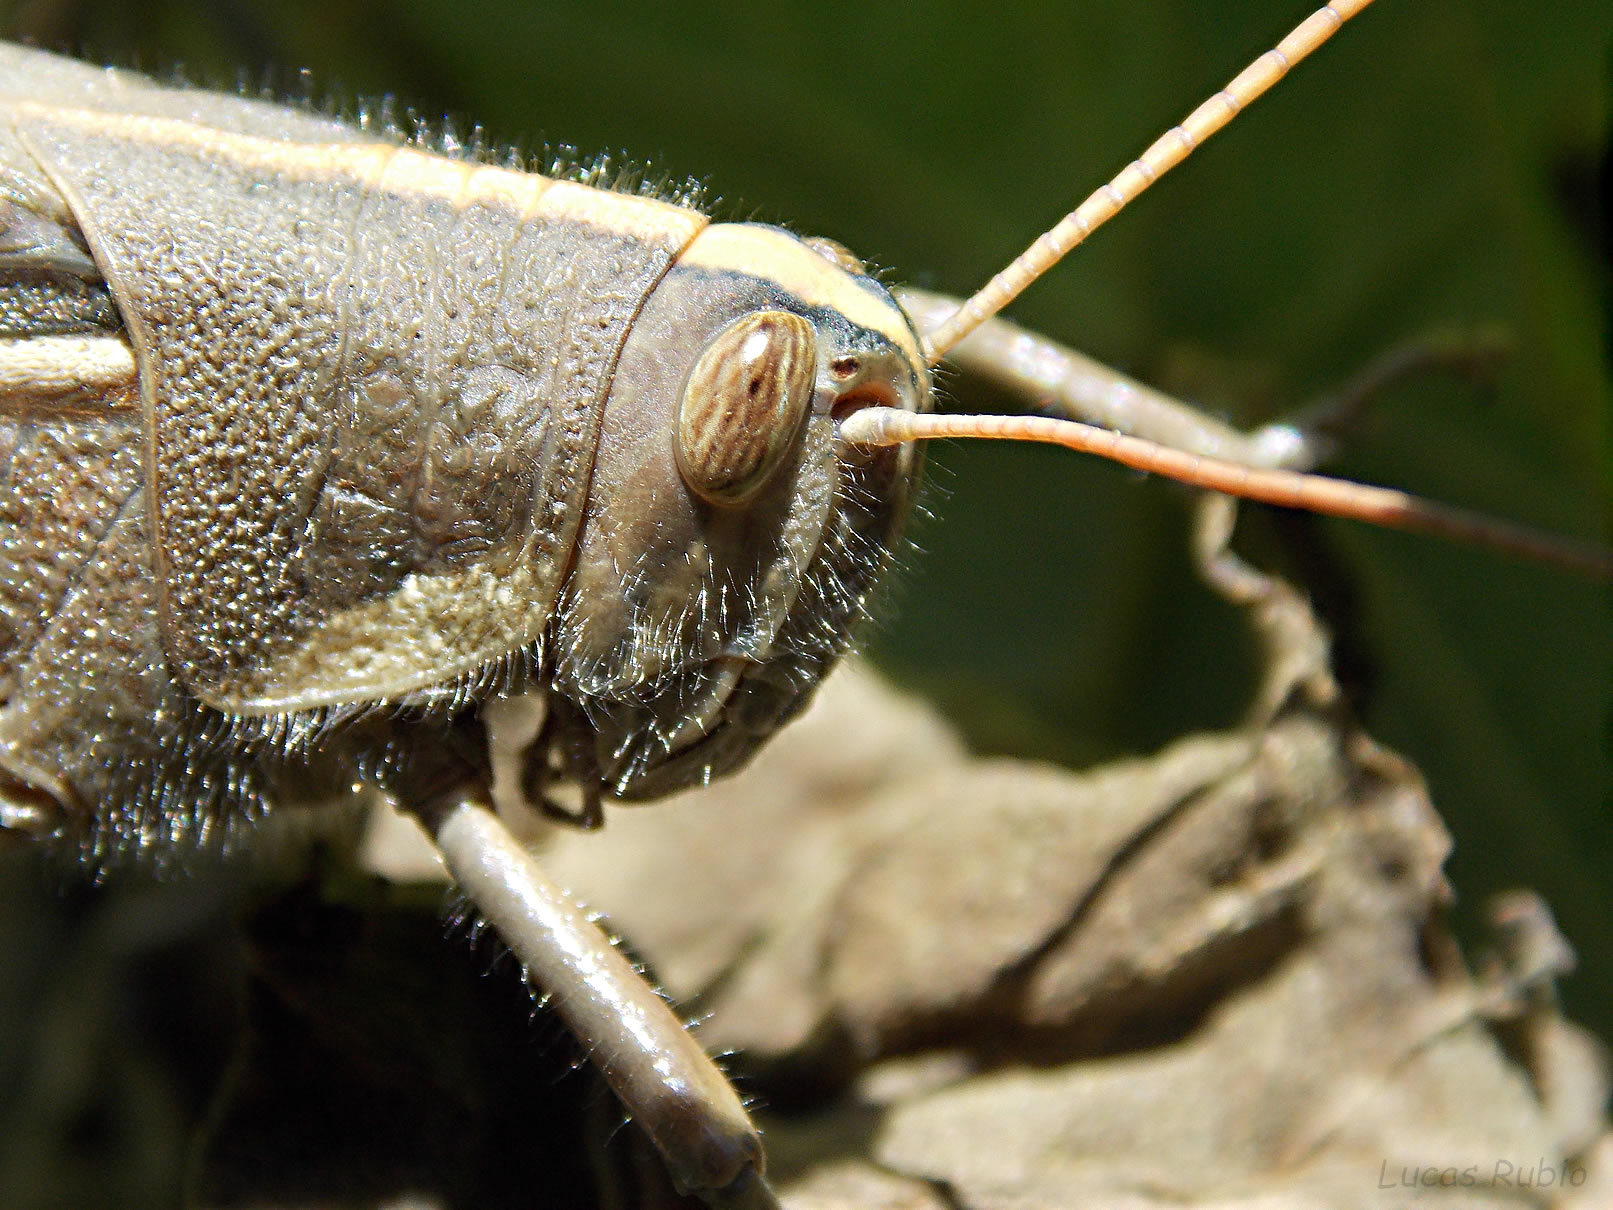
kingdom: Animalia
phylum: Arthropoda
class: Insecta
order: Orthoptera
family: Acrididae
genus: Schistocerca
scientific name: Schistocerca flavofasciata
